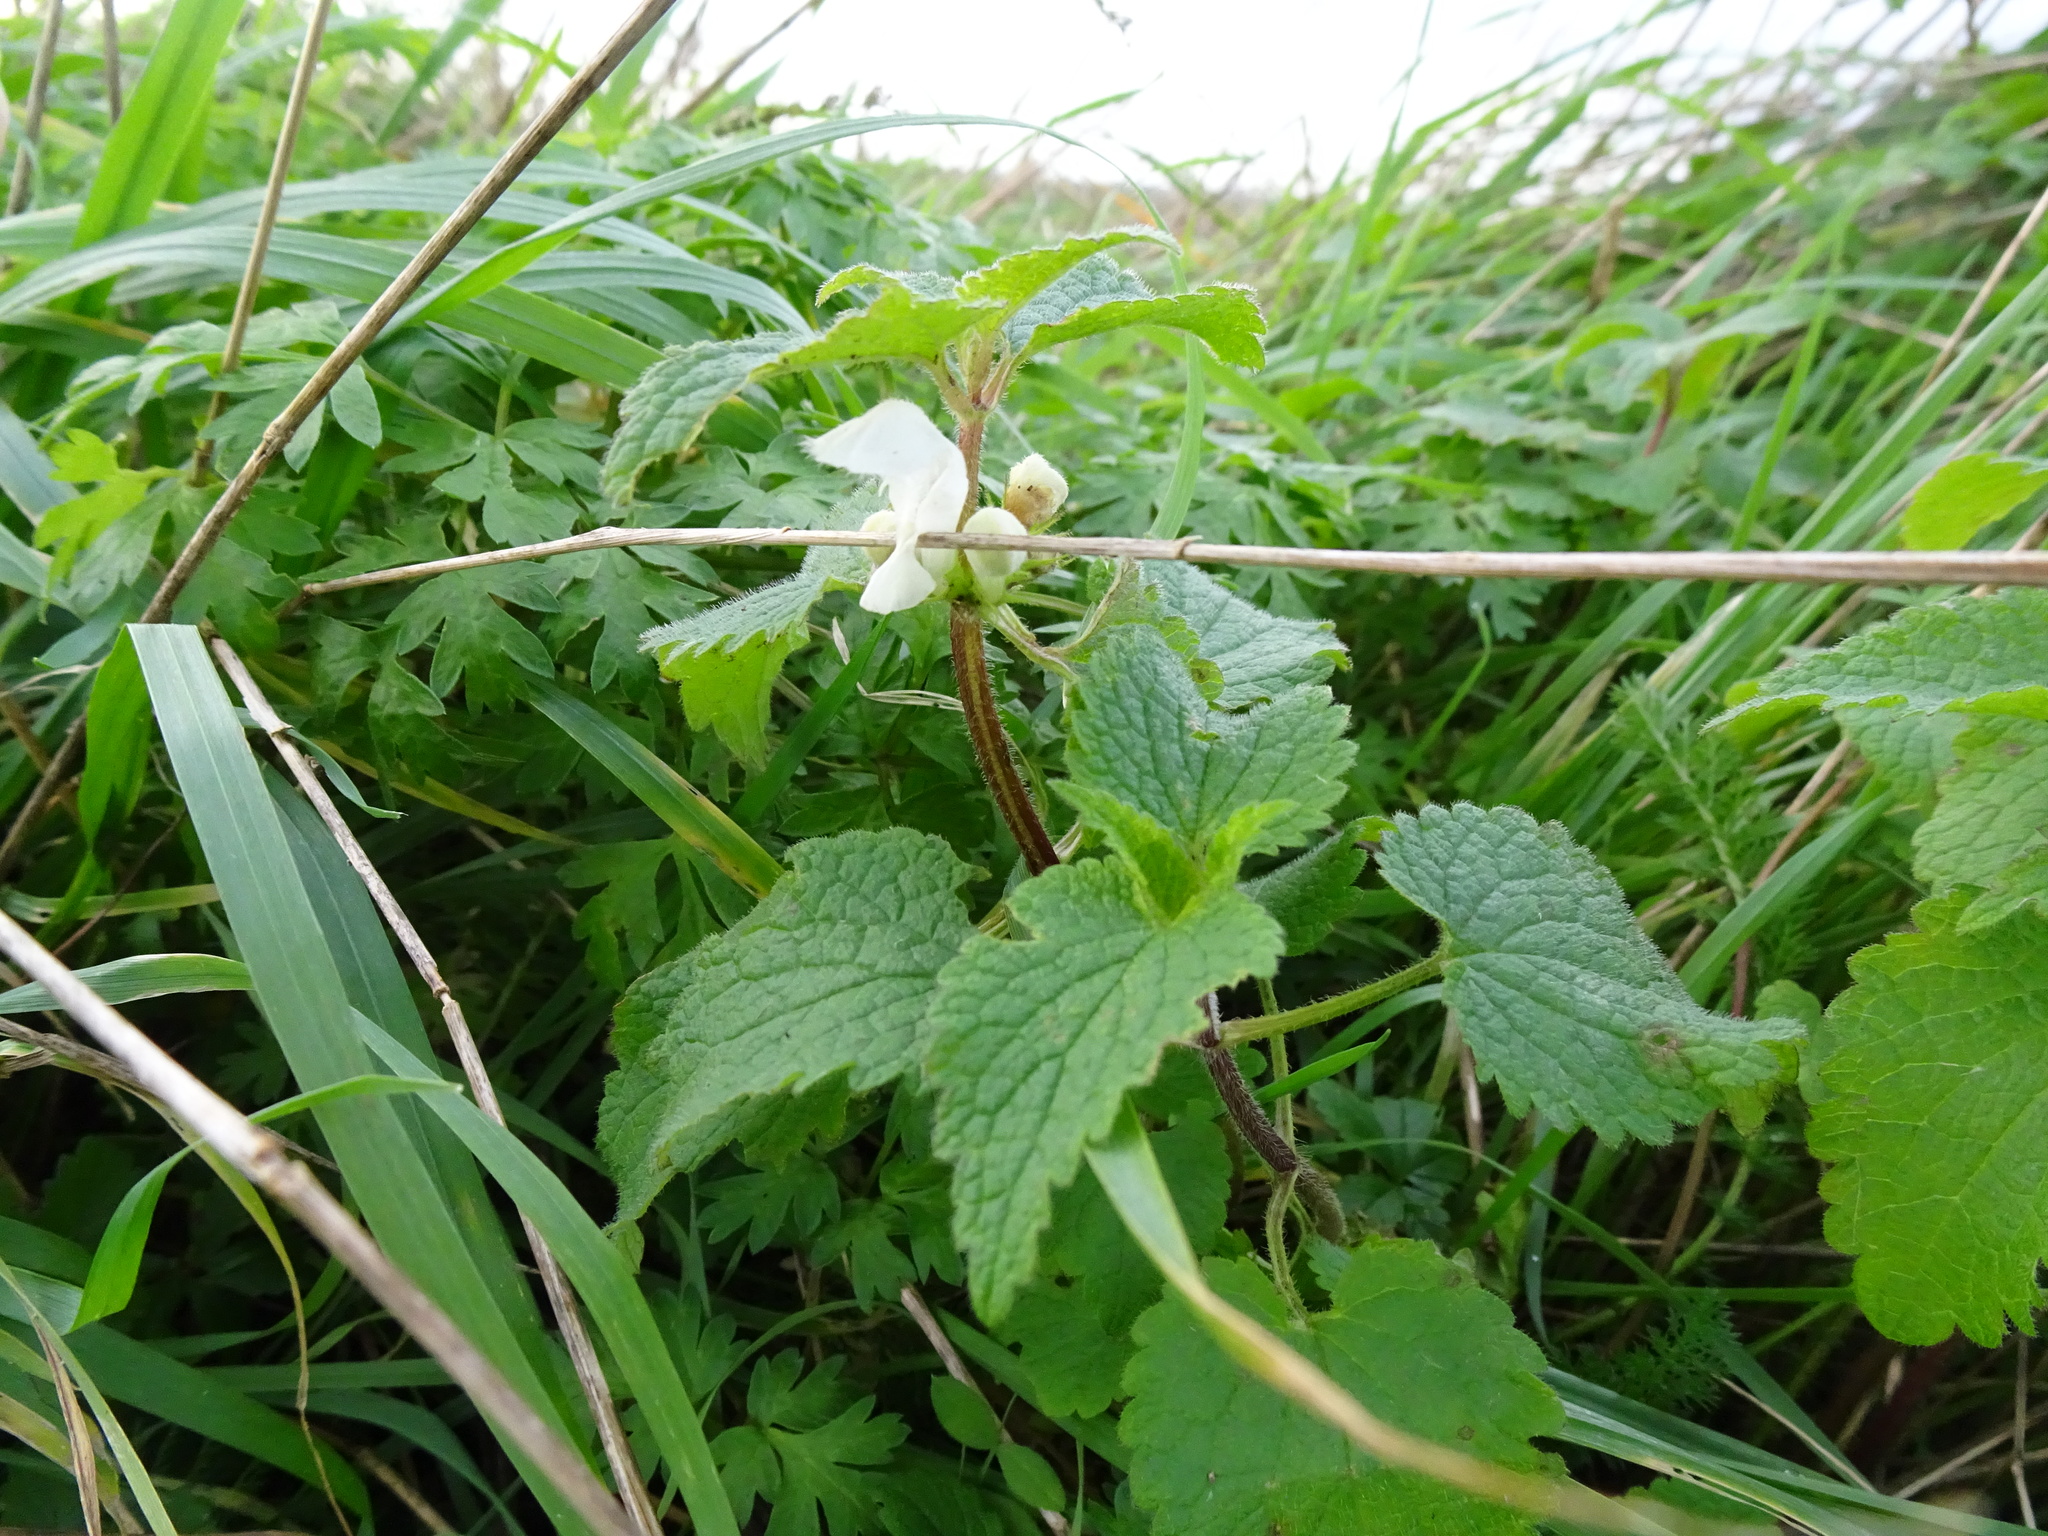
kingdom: Plantae
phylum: Tracheophyta
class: Magnoliopsida
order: Lamiales
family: Lamiaceae
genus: Lamium
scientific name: Lamium album
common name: White dead-nettle
